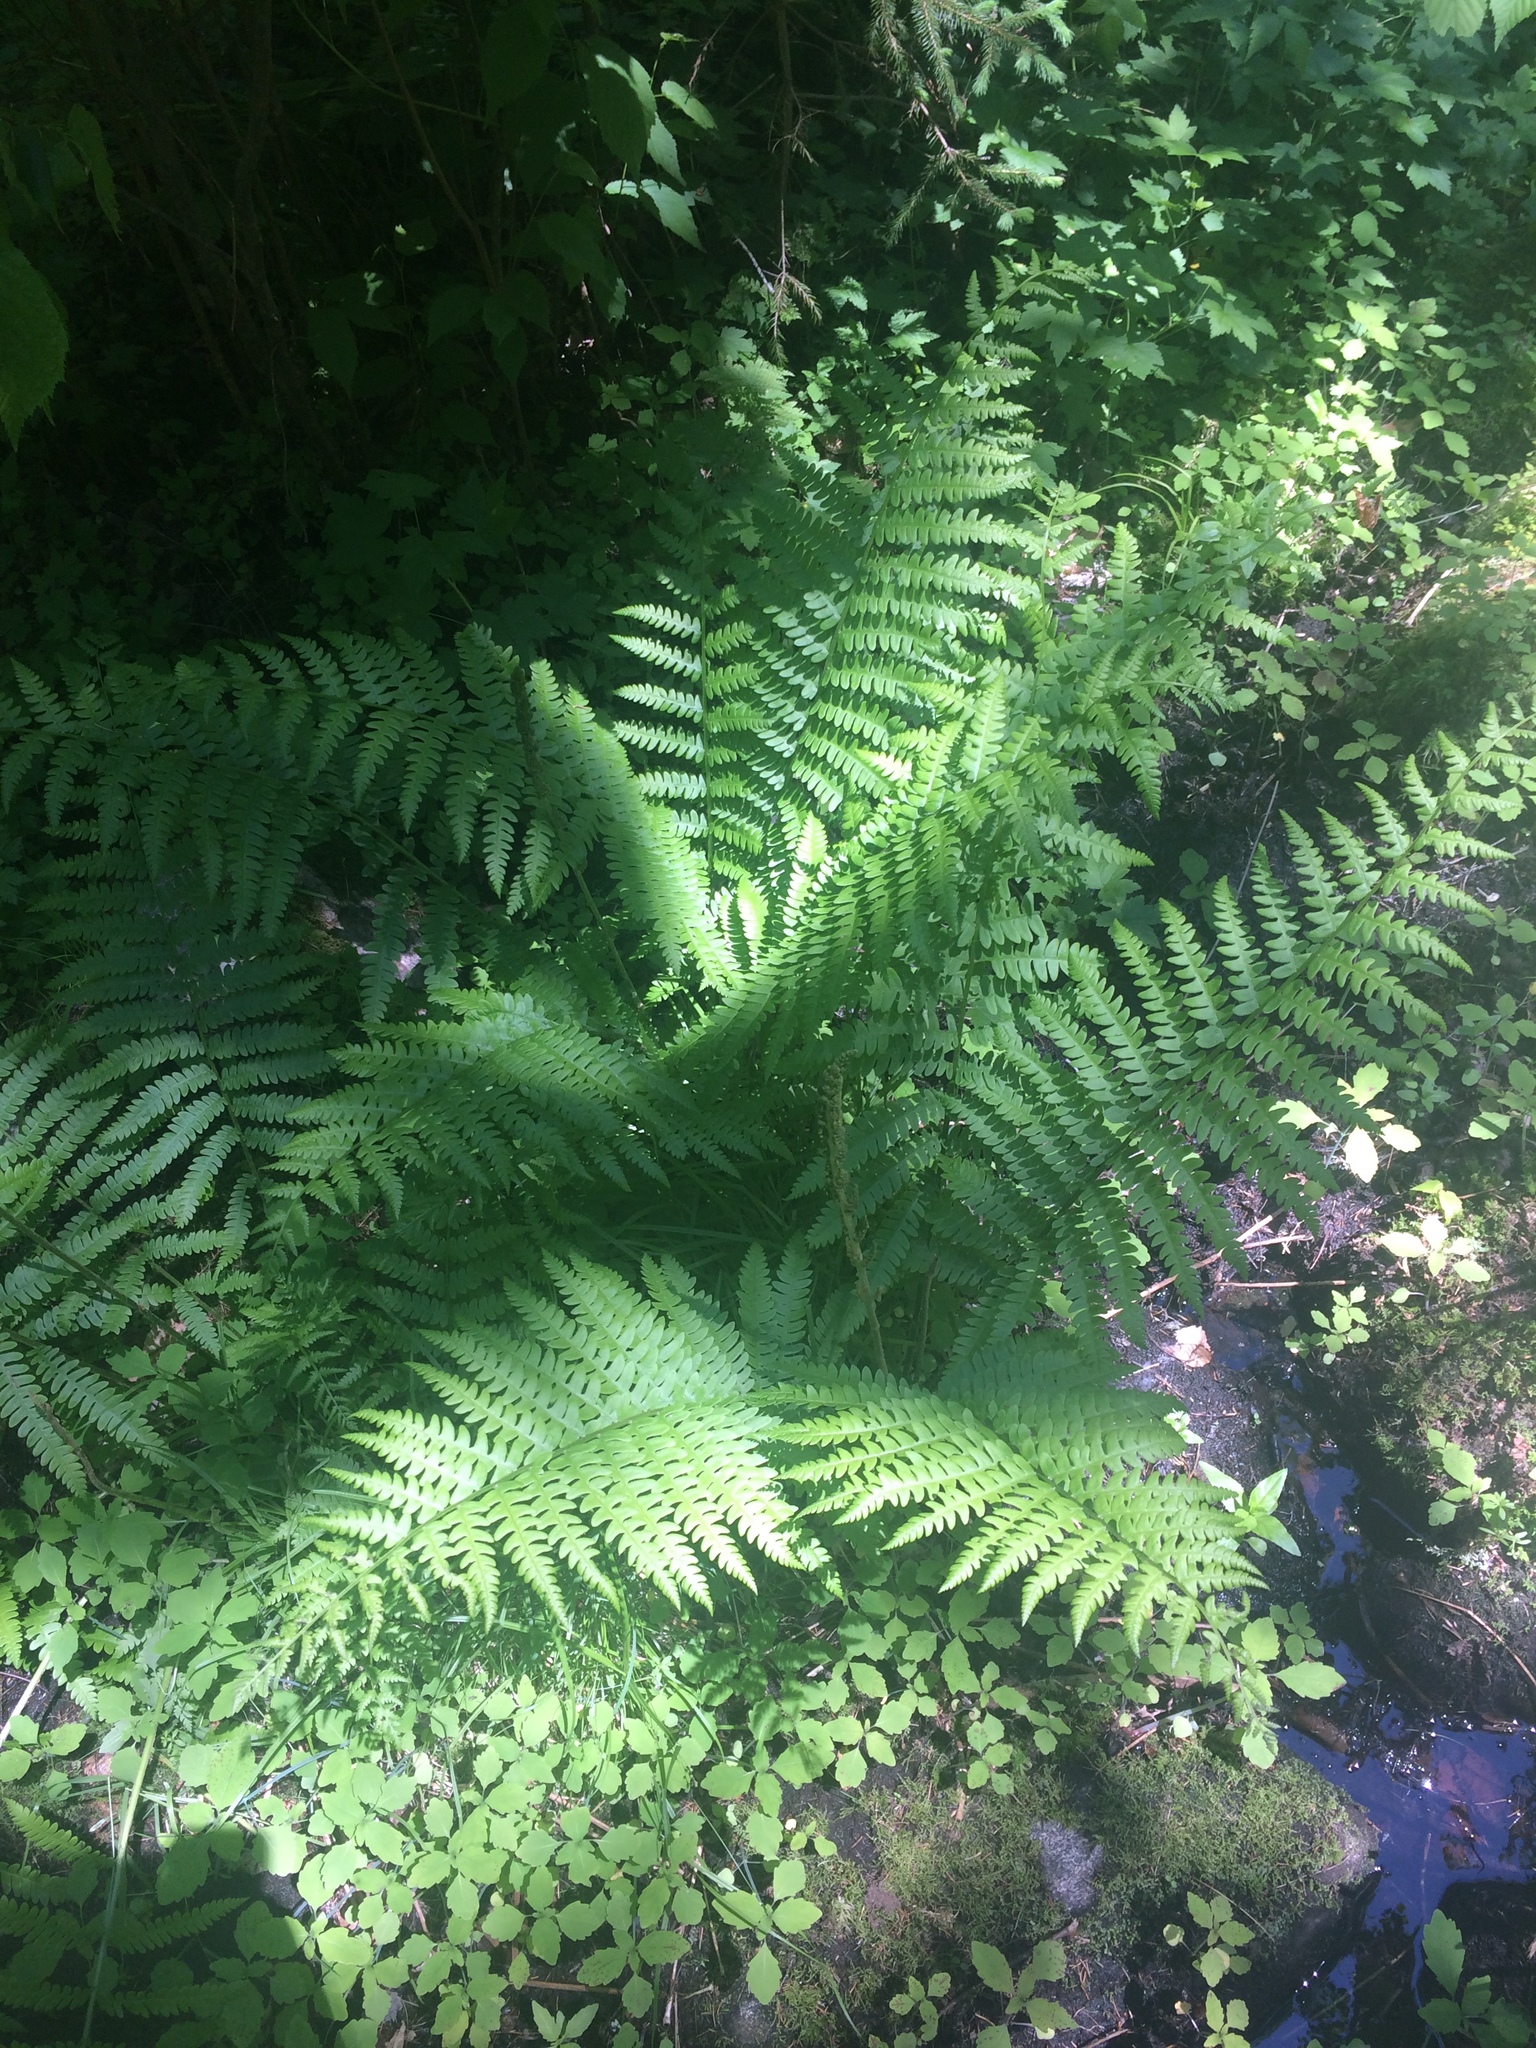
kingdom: Plantae
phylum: Tracheophyta
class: Polypodiopsida
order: Osmundales
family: Osmundaceae
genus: Osmundastrum
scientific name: Osmundastrum cinnamomeum
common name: Cinnamon fern
